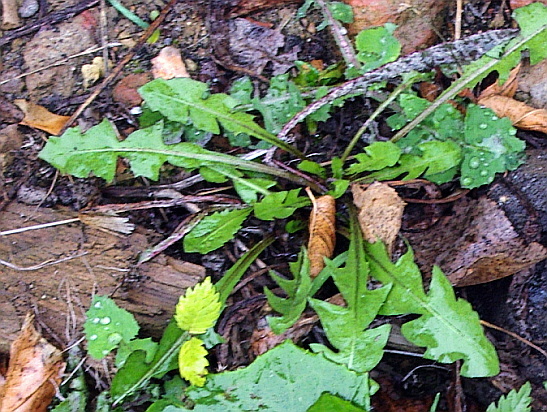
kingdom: Plantae
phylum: Tracheophyta
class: Magnoliopsida
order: Asterales
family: Asteraceae
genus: Taraxacum
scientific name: Taraxacum officinale
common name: Common dandelion
